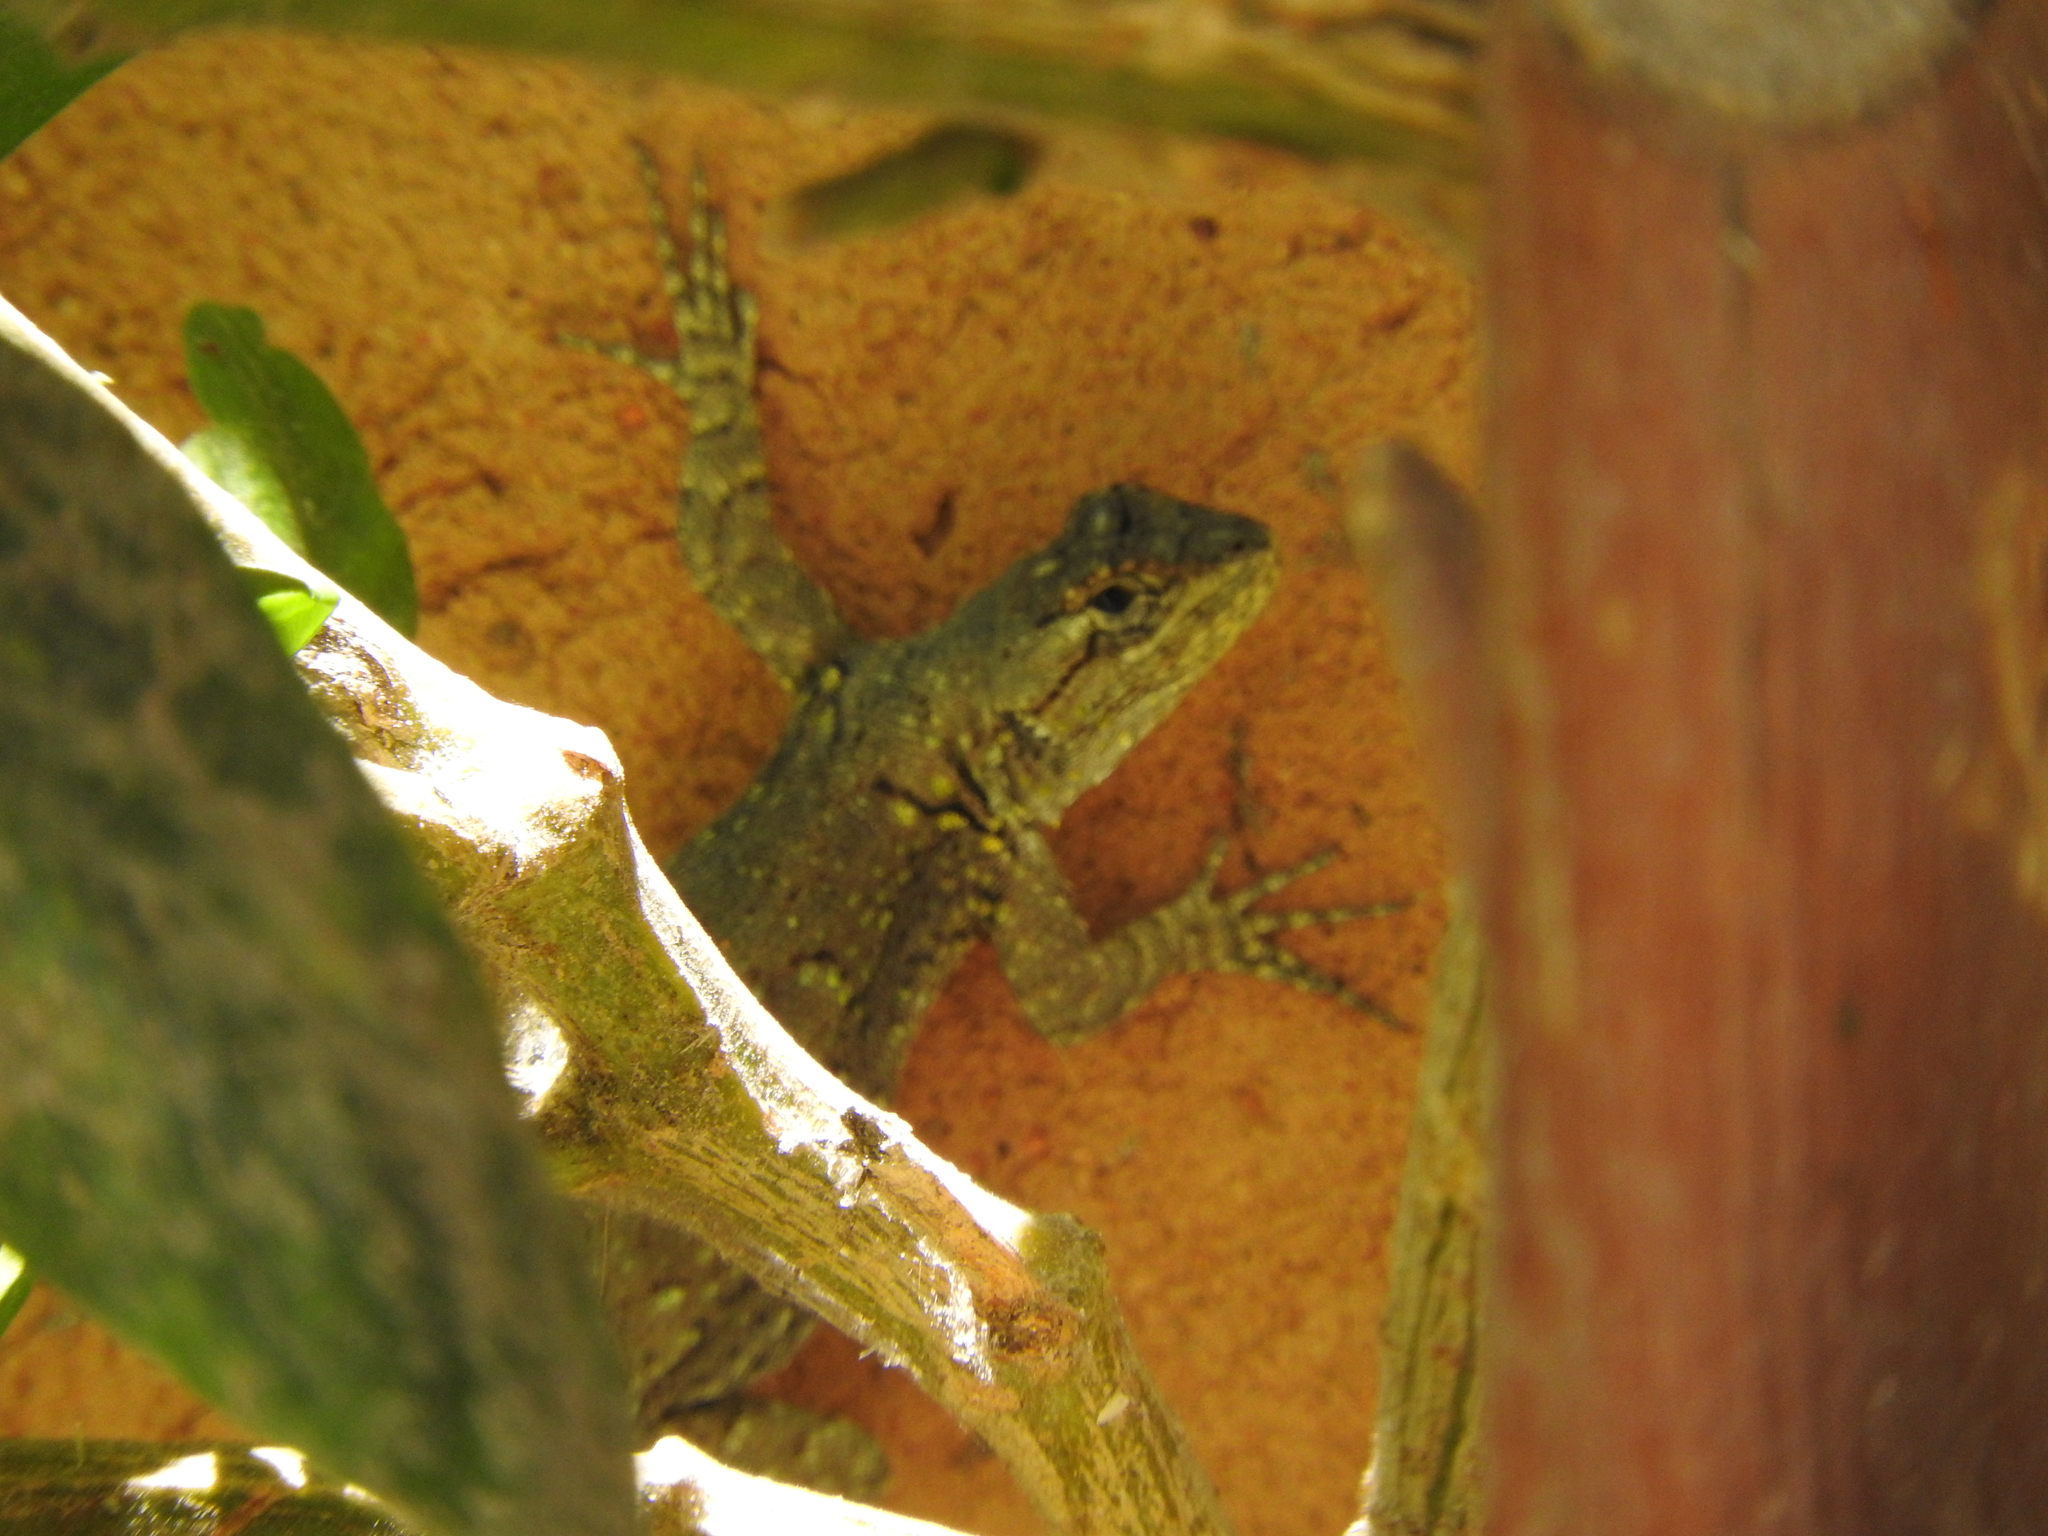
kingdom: Animalia
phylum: Chordata
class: Squamata
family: Phrynosomatidae
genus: Sceloporus
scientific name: Sceloporus grammicus
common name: Mesquite lizard
